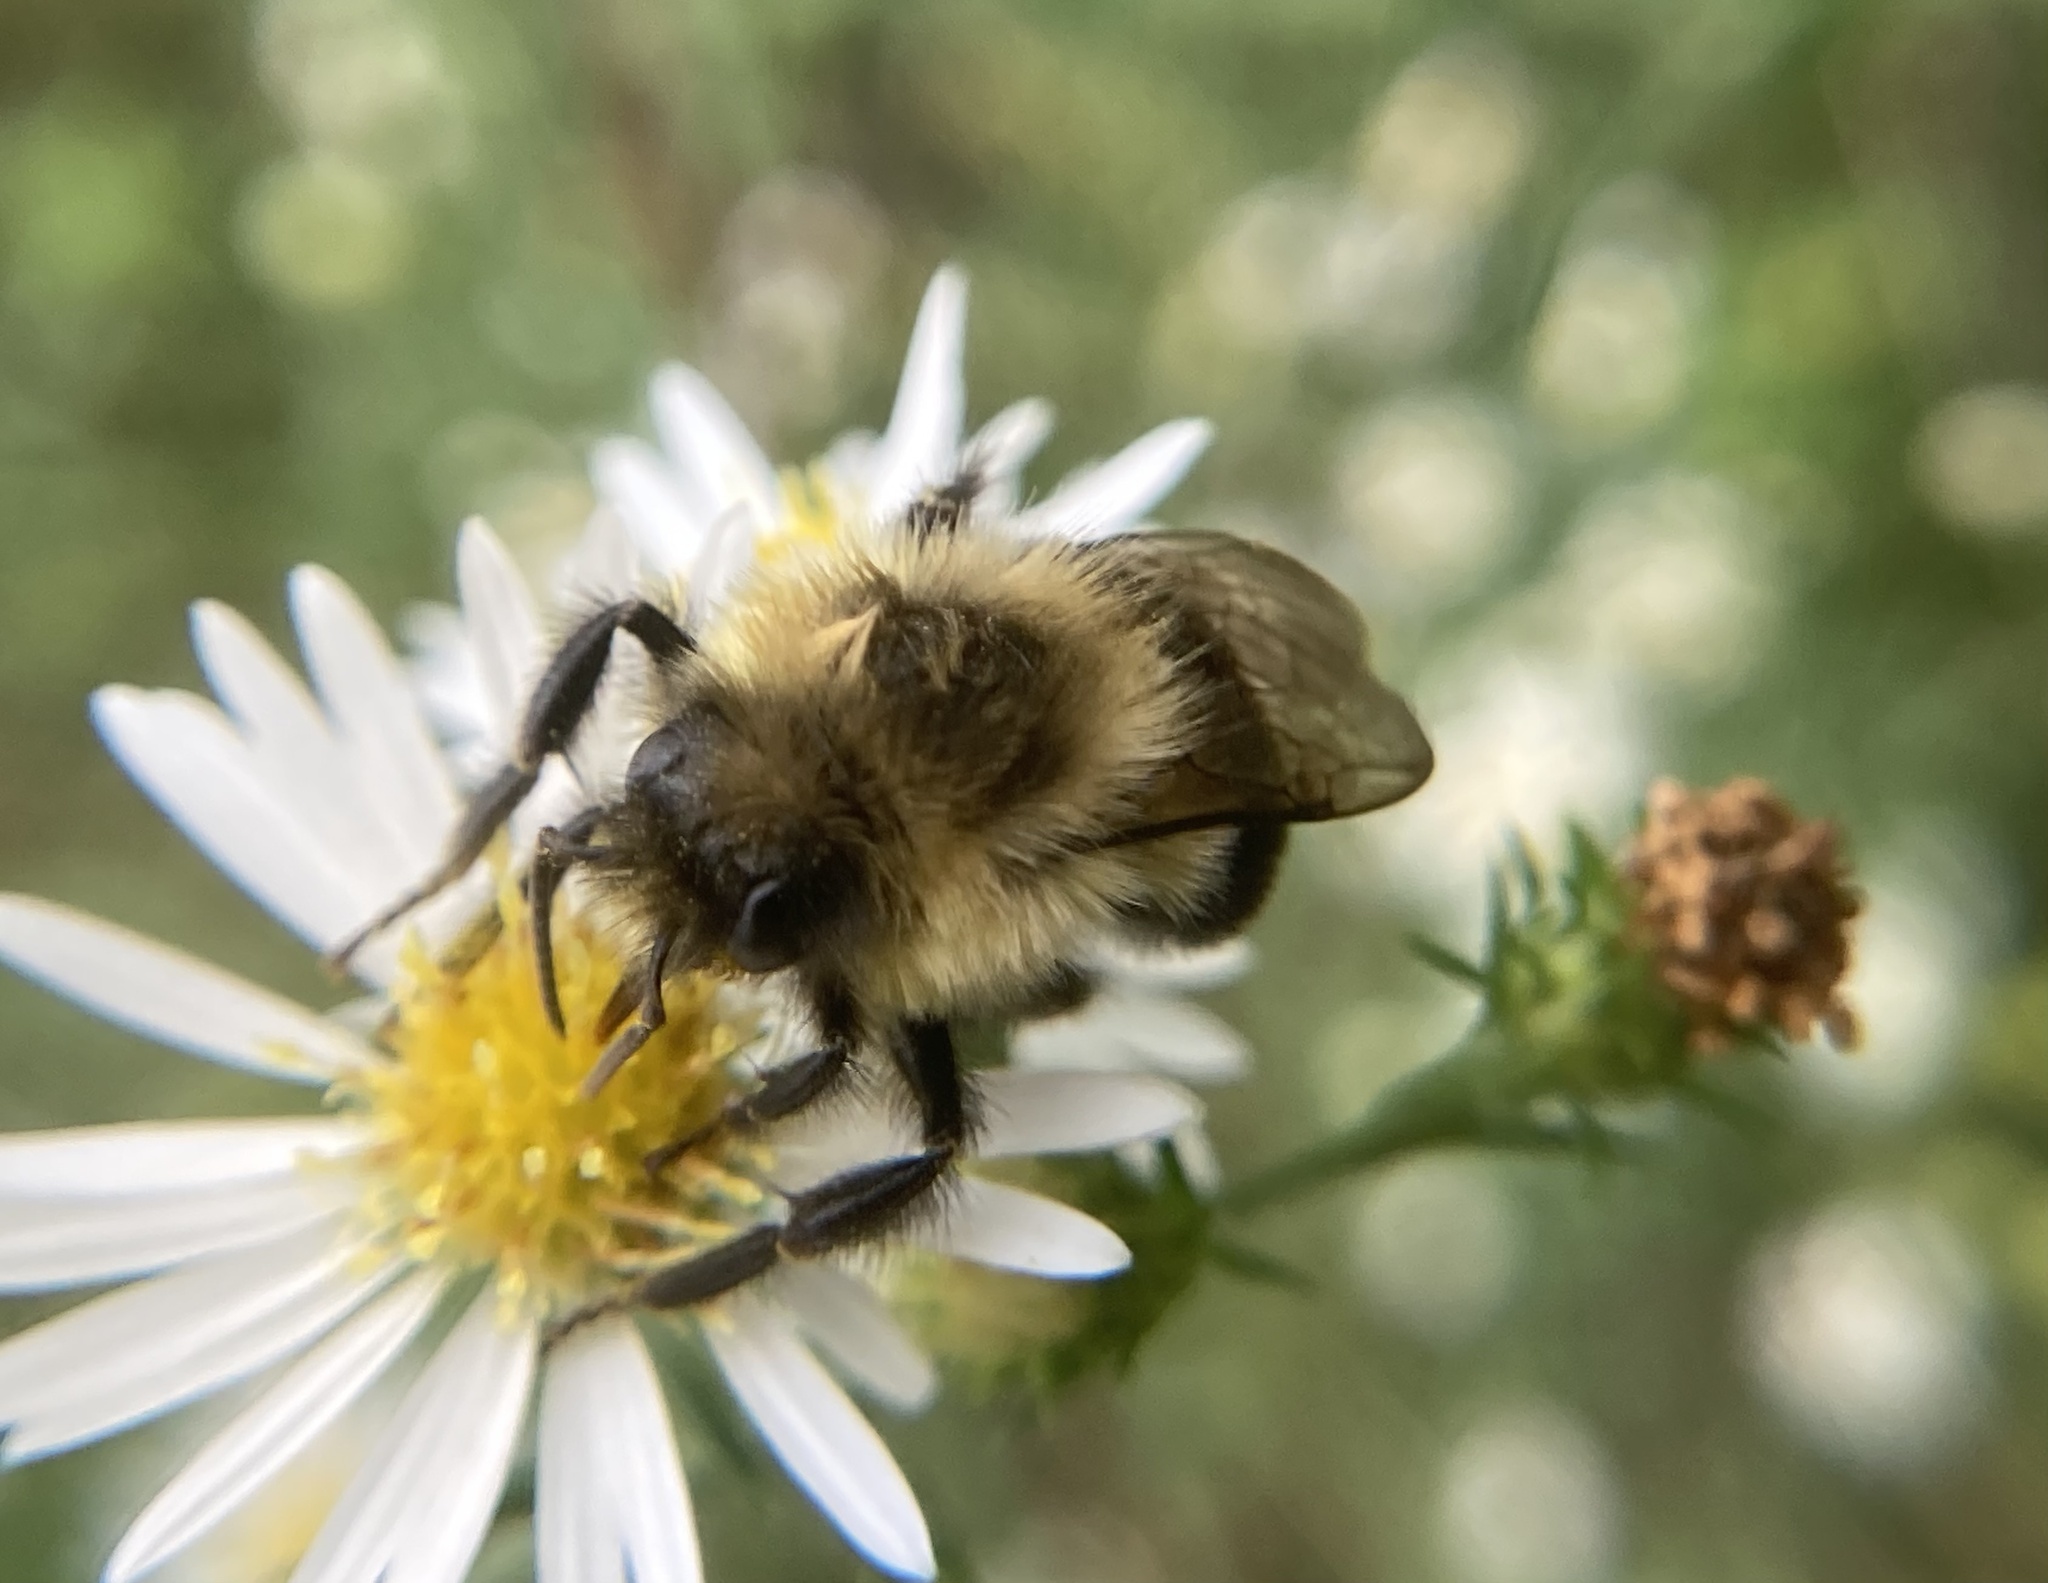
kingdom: Animalia
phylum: Arthropoda
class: Insecta
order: Hymenoptera
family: Apidae
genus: Bombus
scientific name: Bombus impatiens
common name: Common eastern bumble bee
